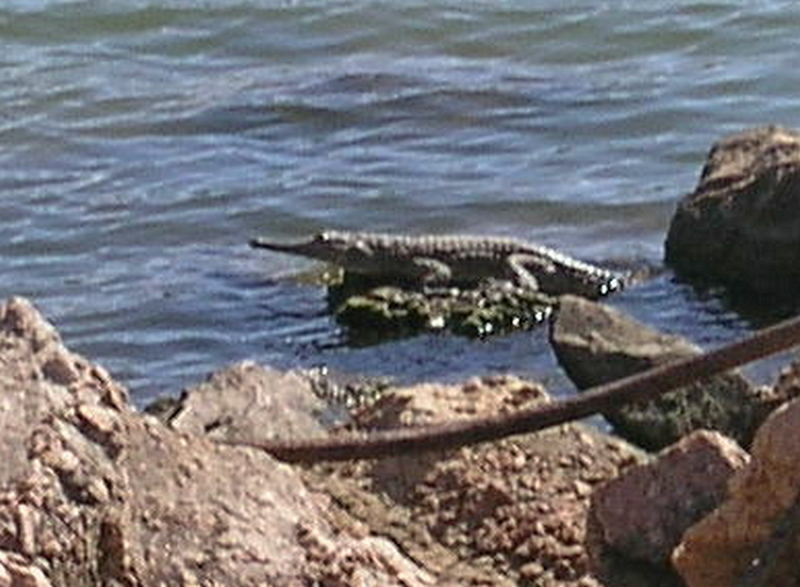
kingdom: Animalia
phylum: Chordata
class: Crocodylia
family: Crocodylidae
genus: Crocodylus
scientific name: Crocodylus johnsoni
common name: Freshwater crocodile
